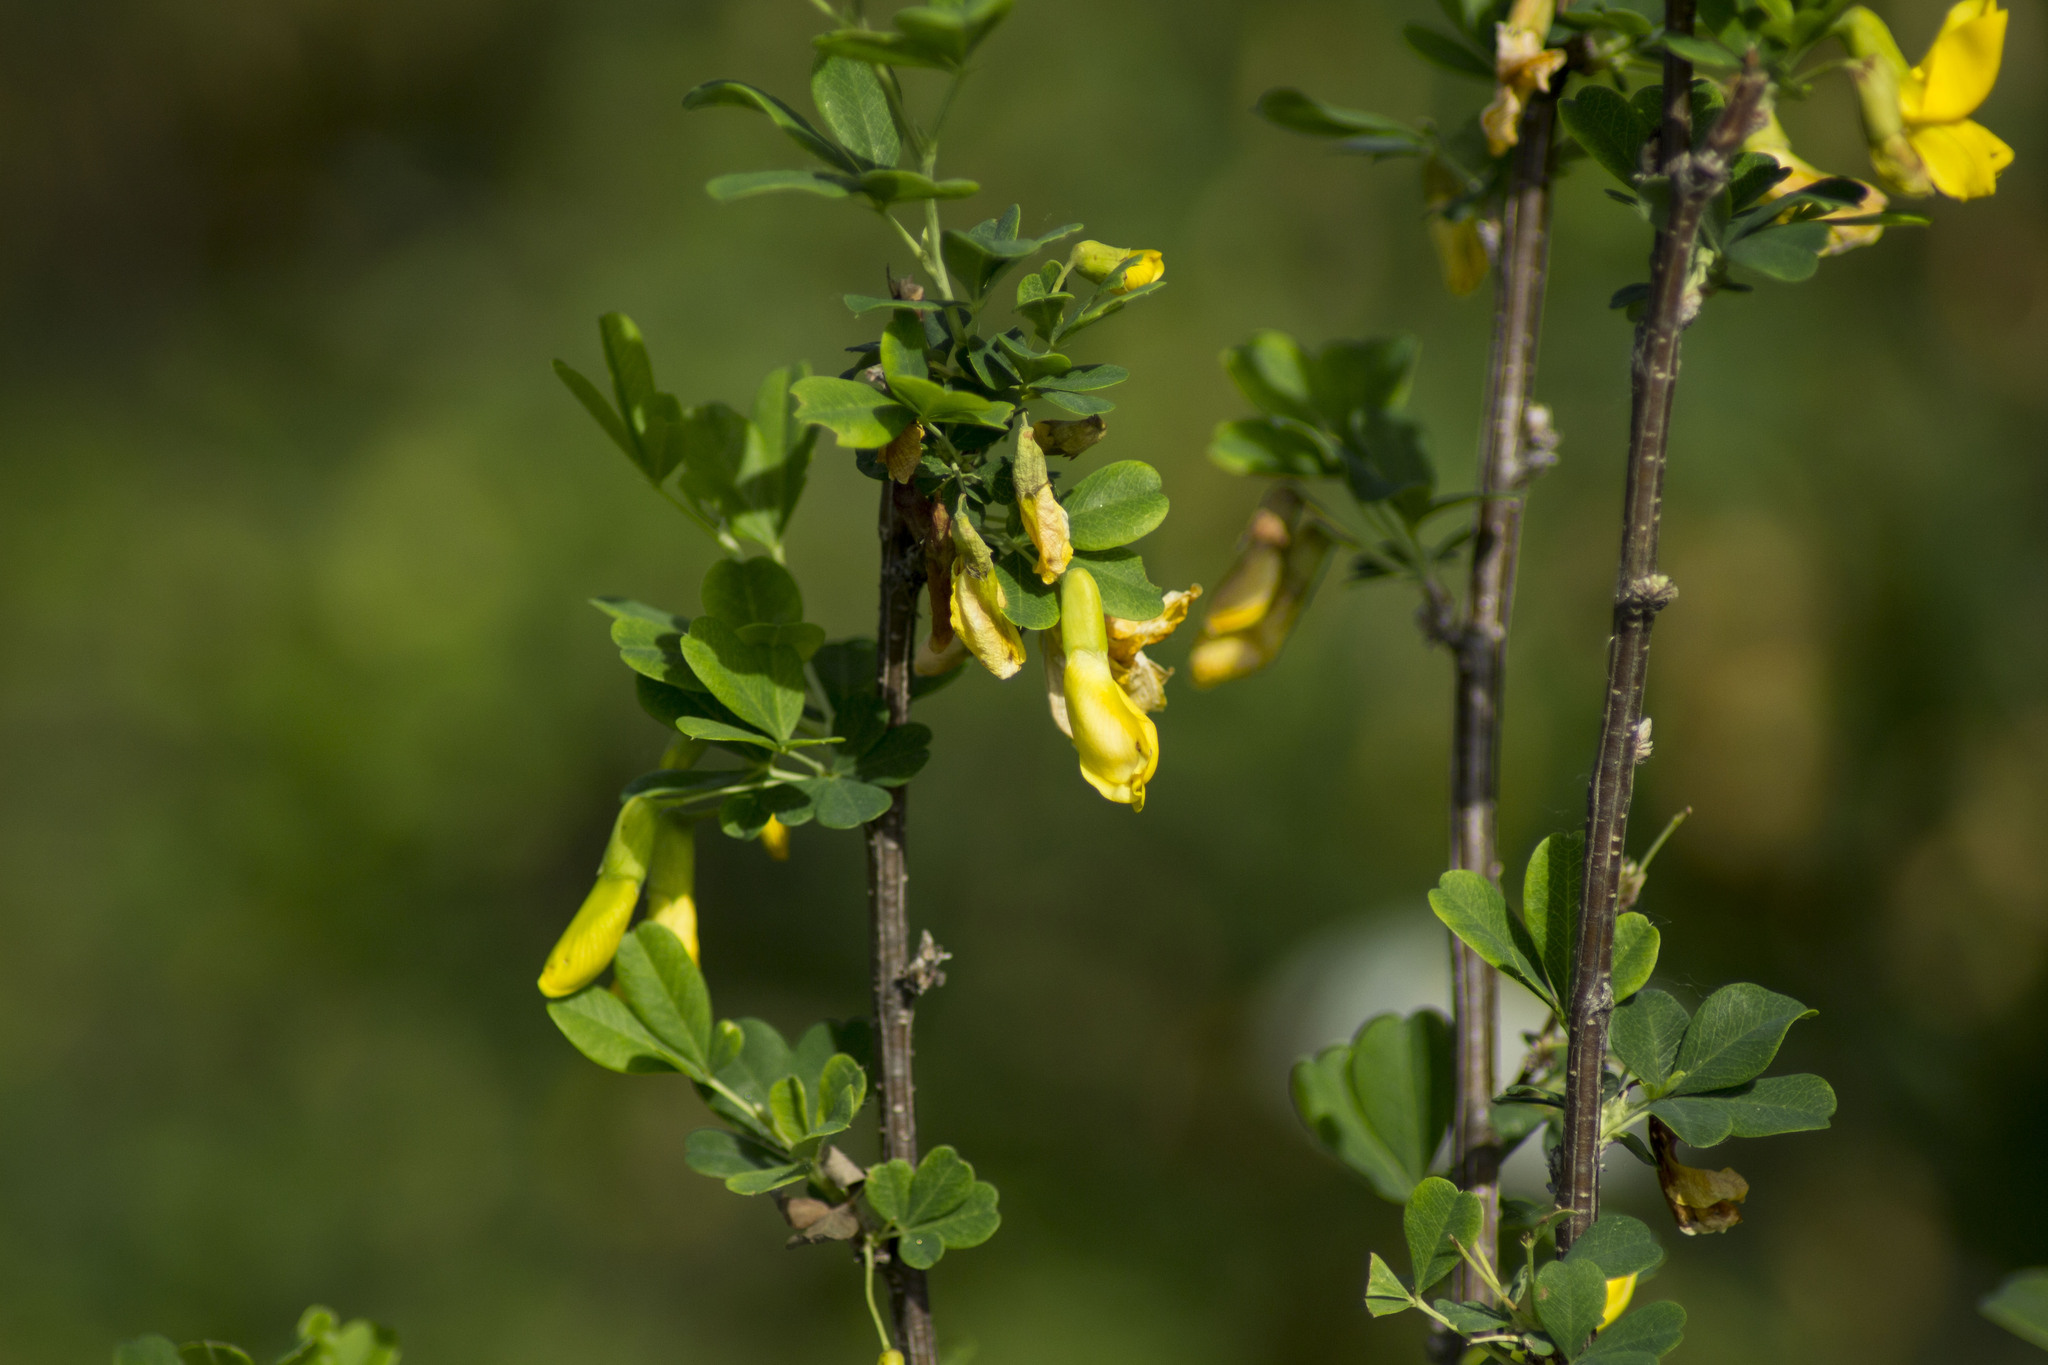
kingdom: Plantae
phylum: Tracheophyta
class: Magnoliopsida
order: Fabales
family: Fabaceae
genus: Caragana
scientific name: Caragana frutex
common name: Russian peashrub
